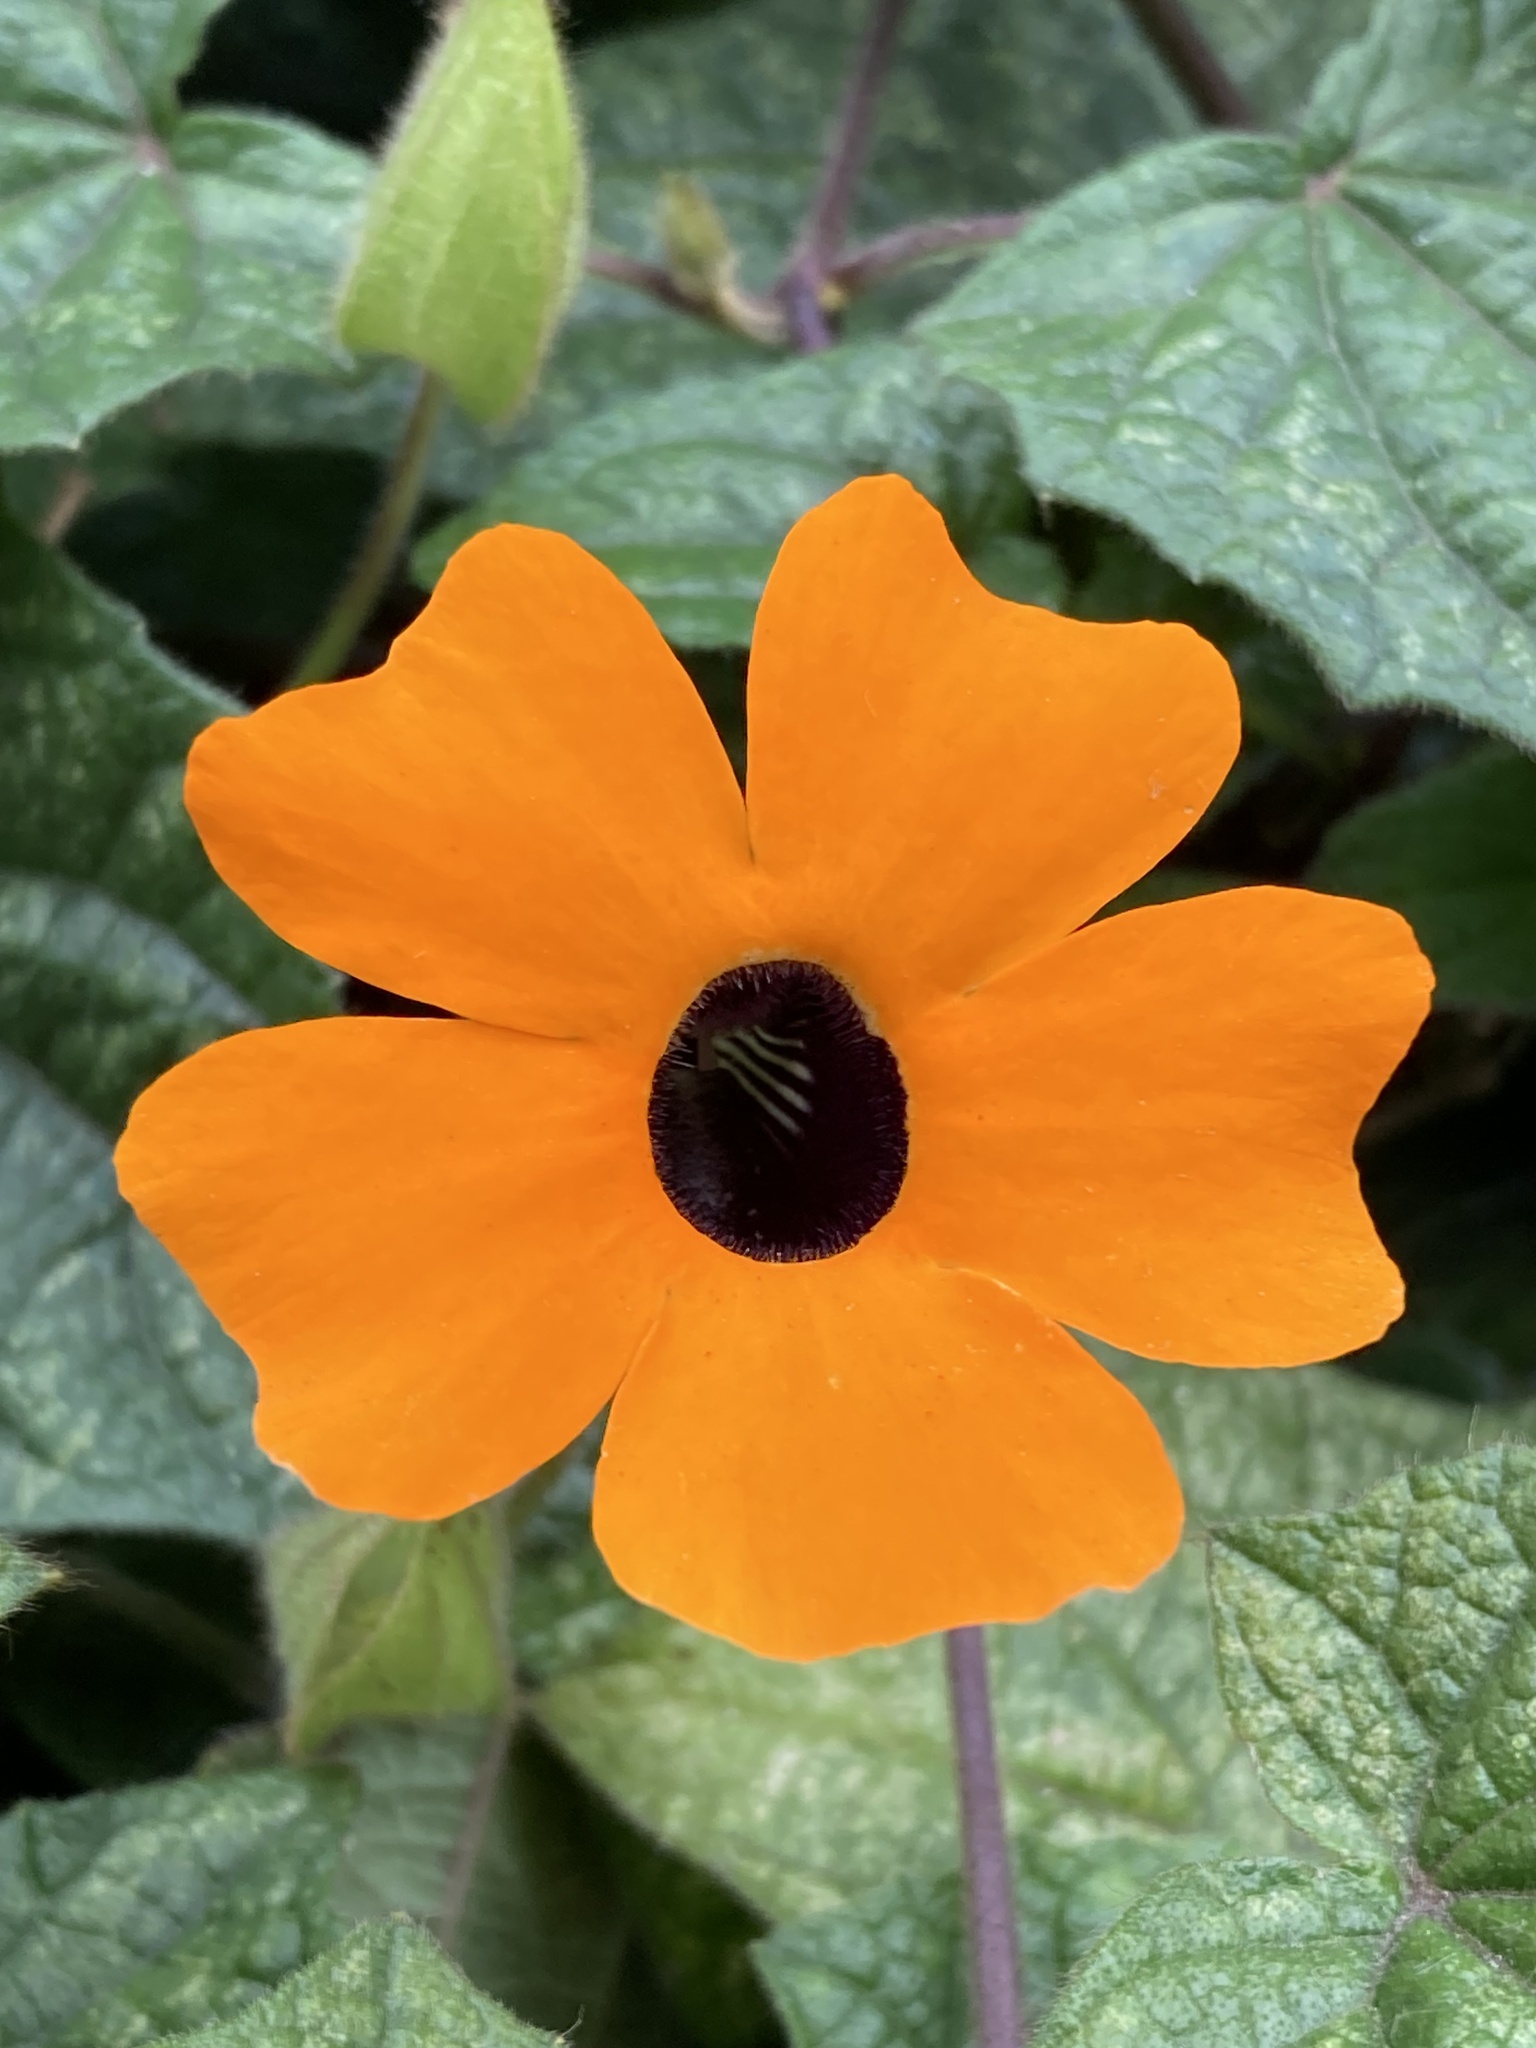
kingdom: Plantae
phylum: Tracheophyta
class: Magnoliopsida
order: Lamiales
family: Acanthaceae
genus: Thunbergia
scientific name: Thunbergia alata
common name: Blackeyed susan vine
